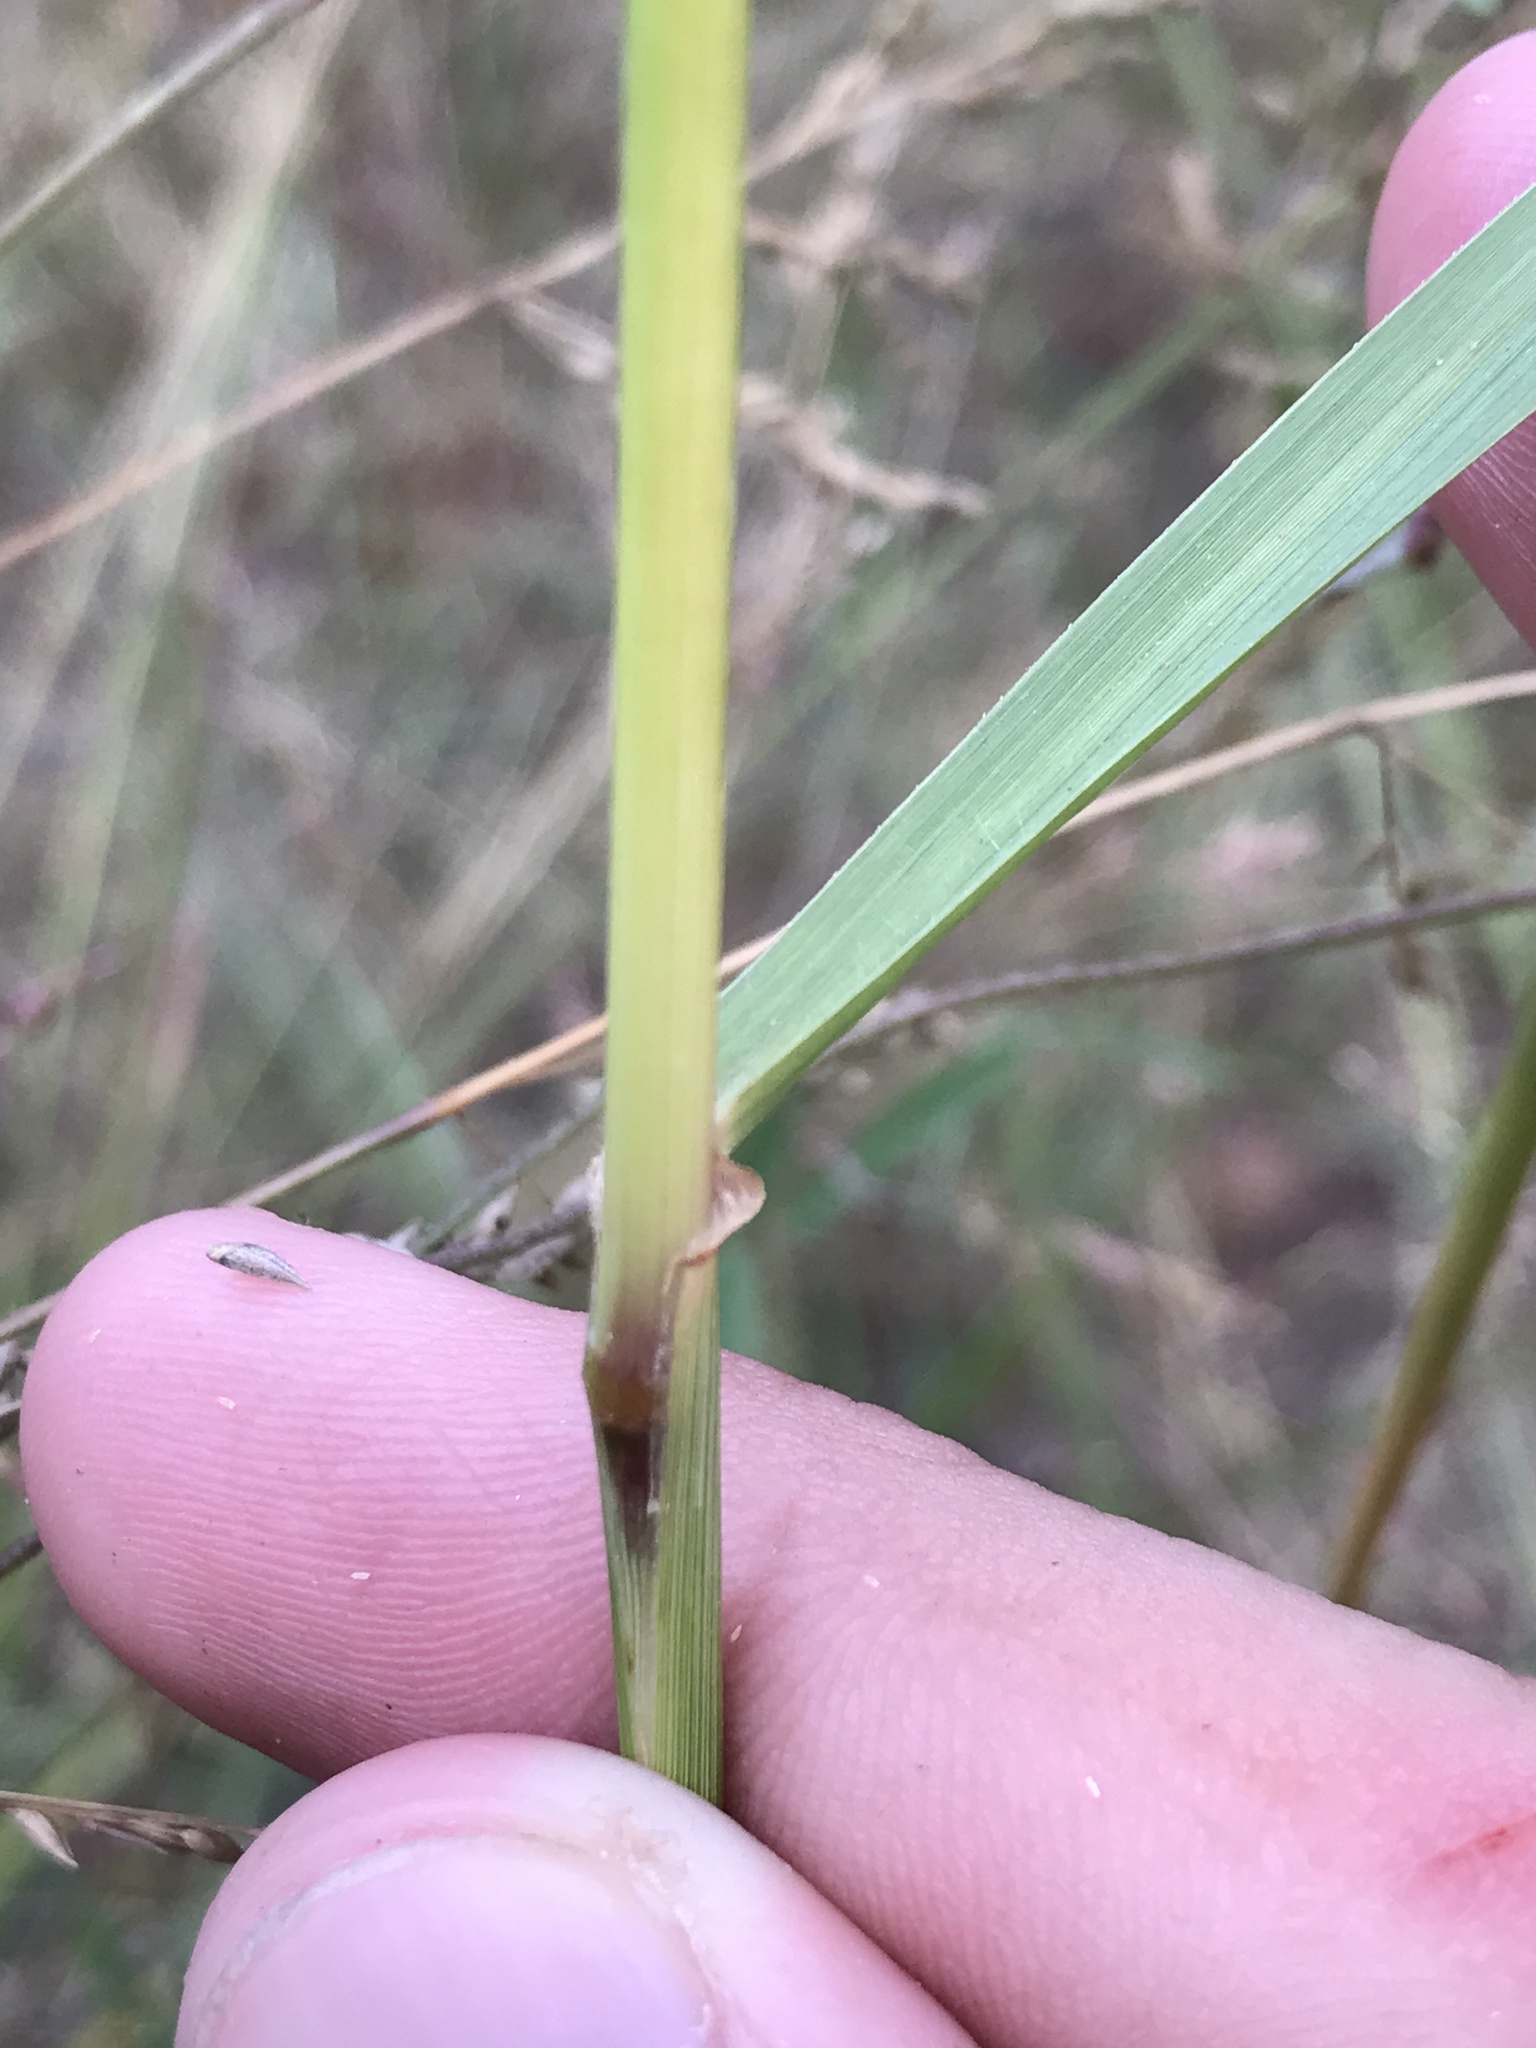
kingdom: Plantae
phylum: Tracheophyta
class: Liliopsida
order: Poales
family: Poaceae
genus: Tridens
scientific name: Tridens strictus
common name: Long-spike tridens
